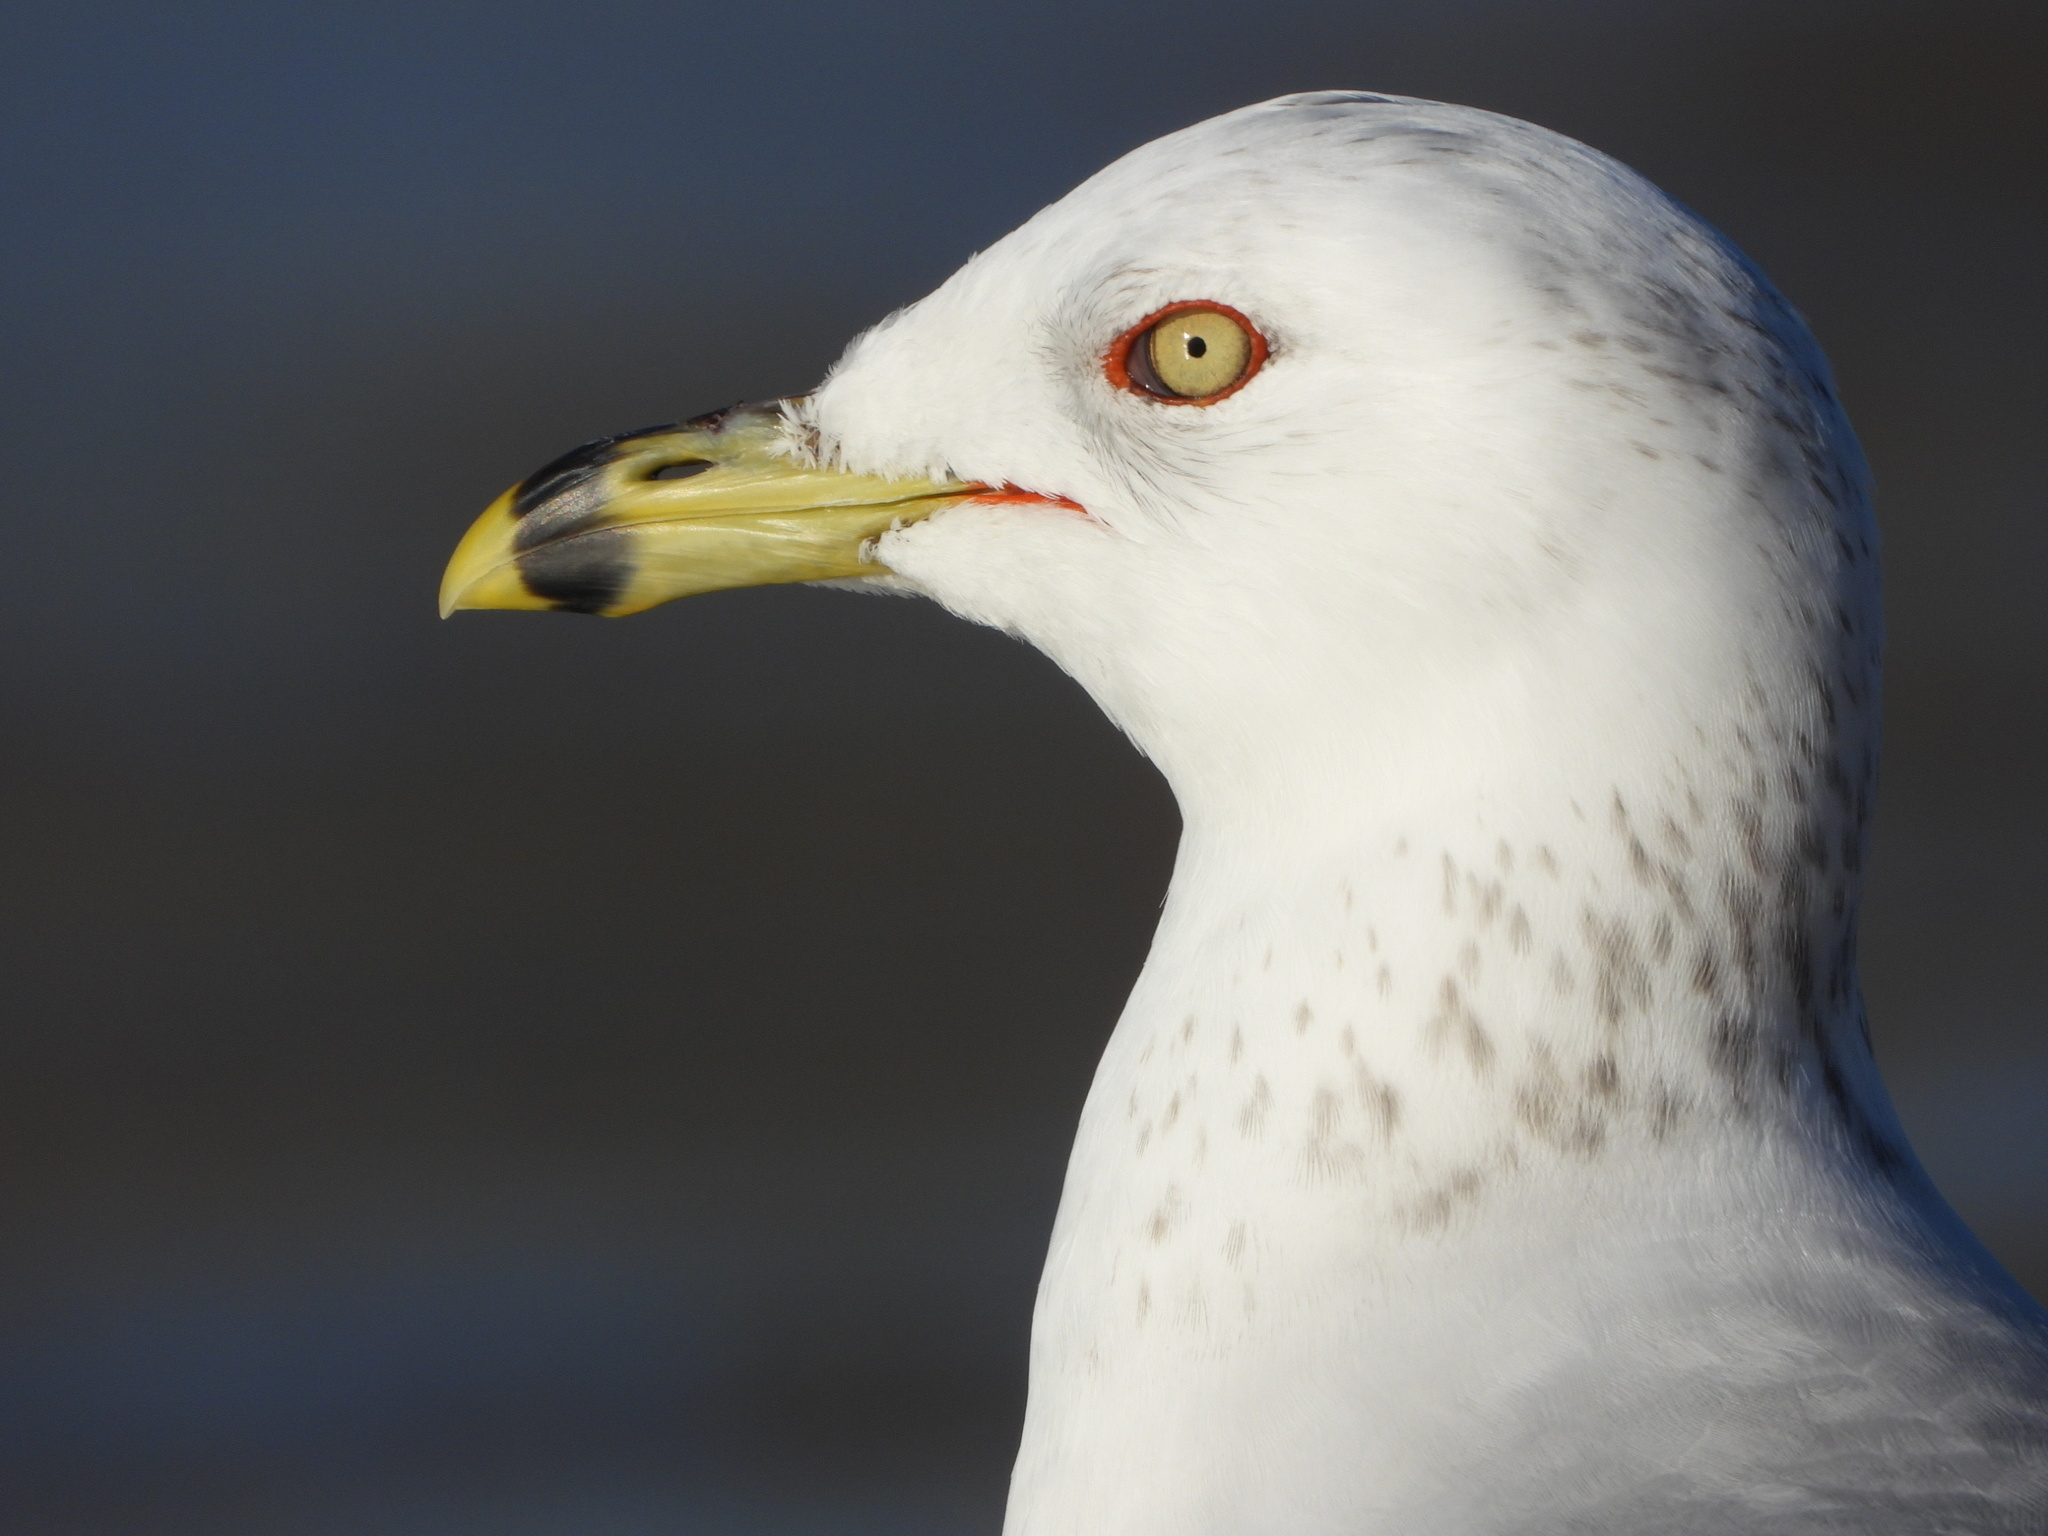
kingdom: Animalia
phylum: Chordata
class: Aves
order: Charadriiformes
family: Laridae
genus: Larus
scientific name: Larus delawarensis
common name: Ring-billed gull
